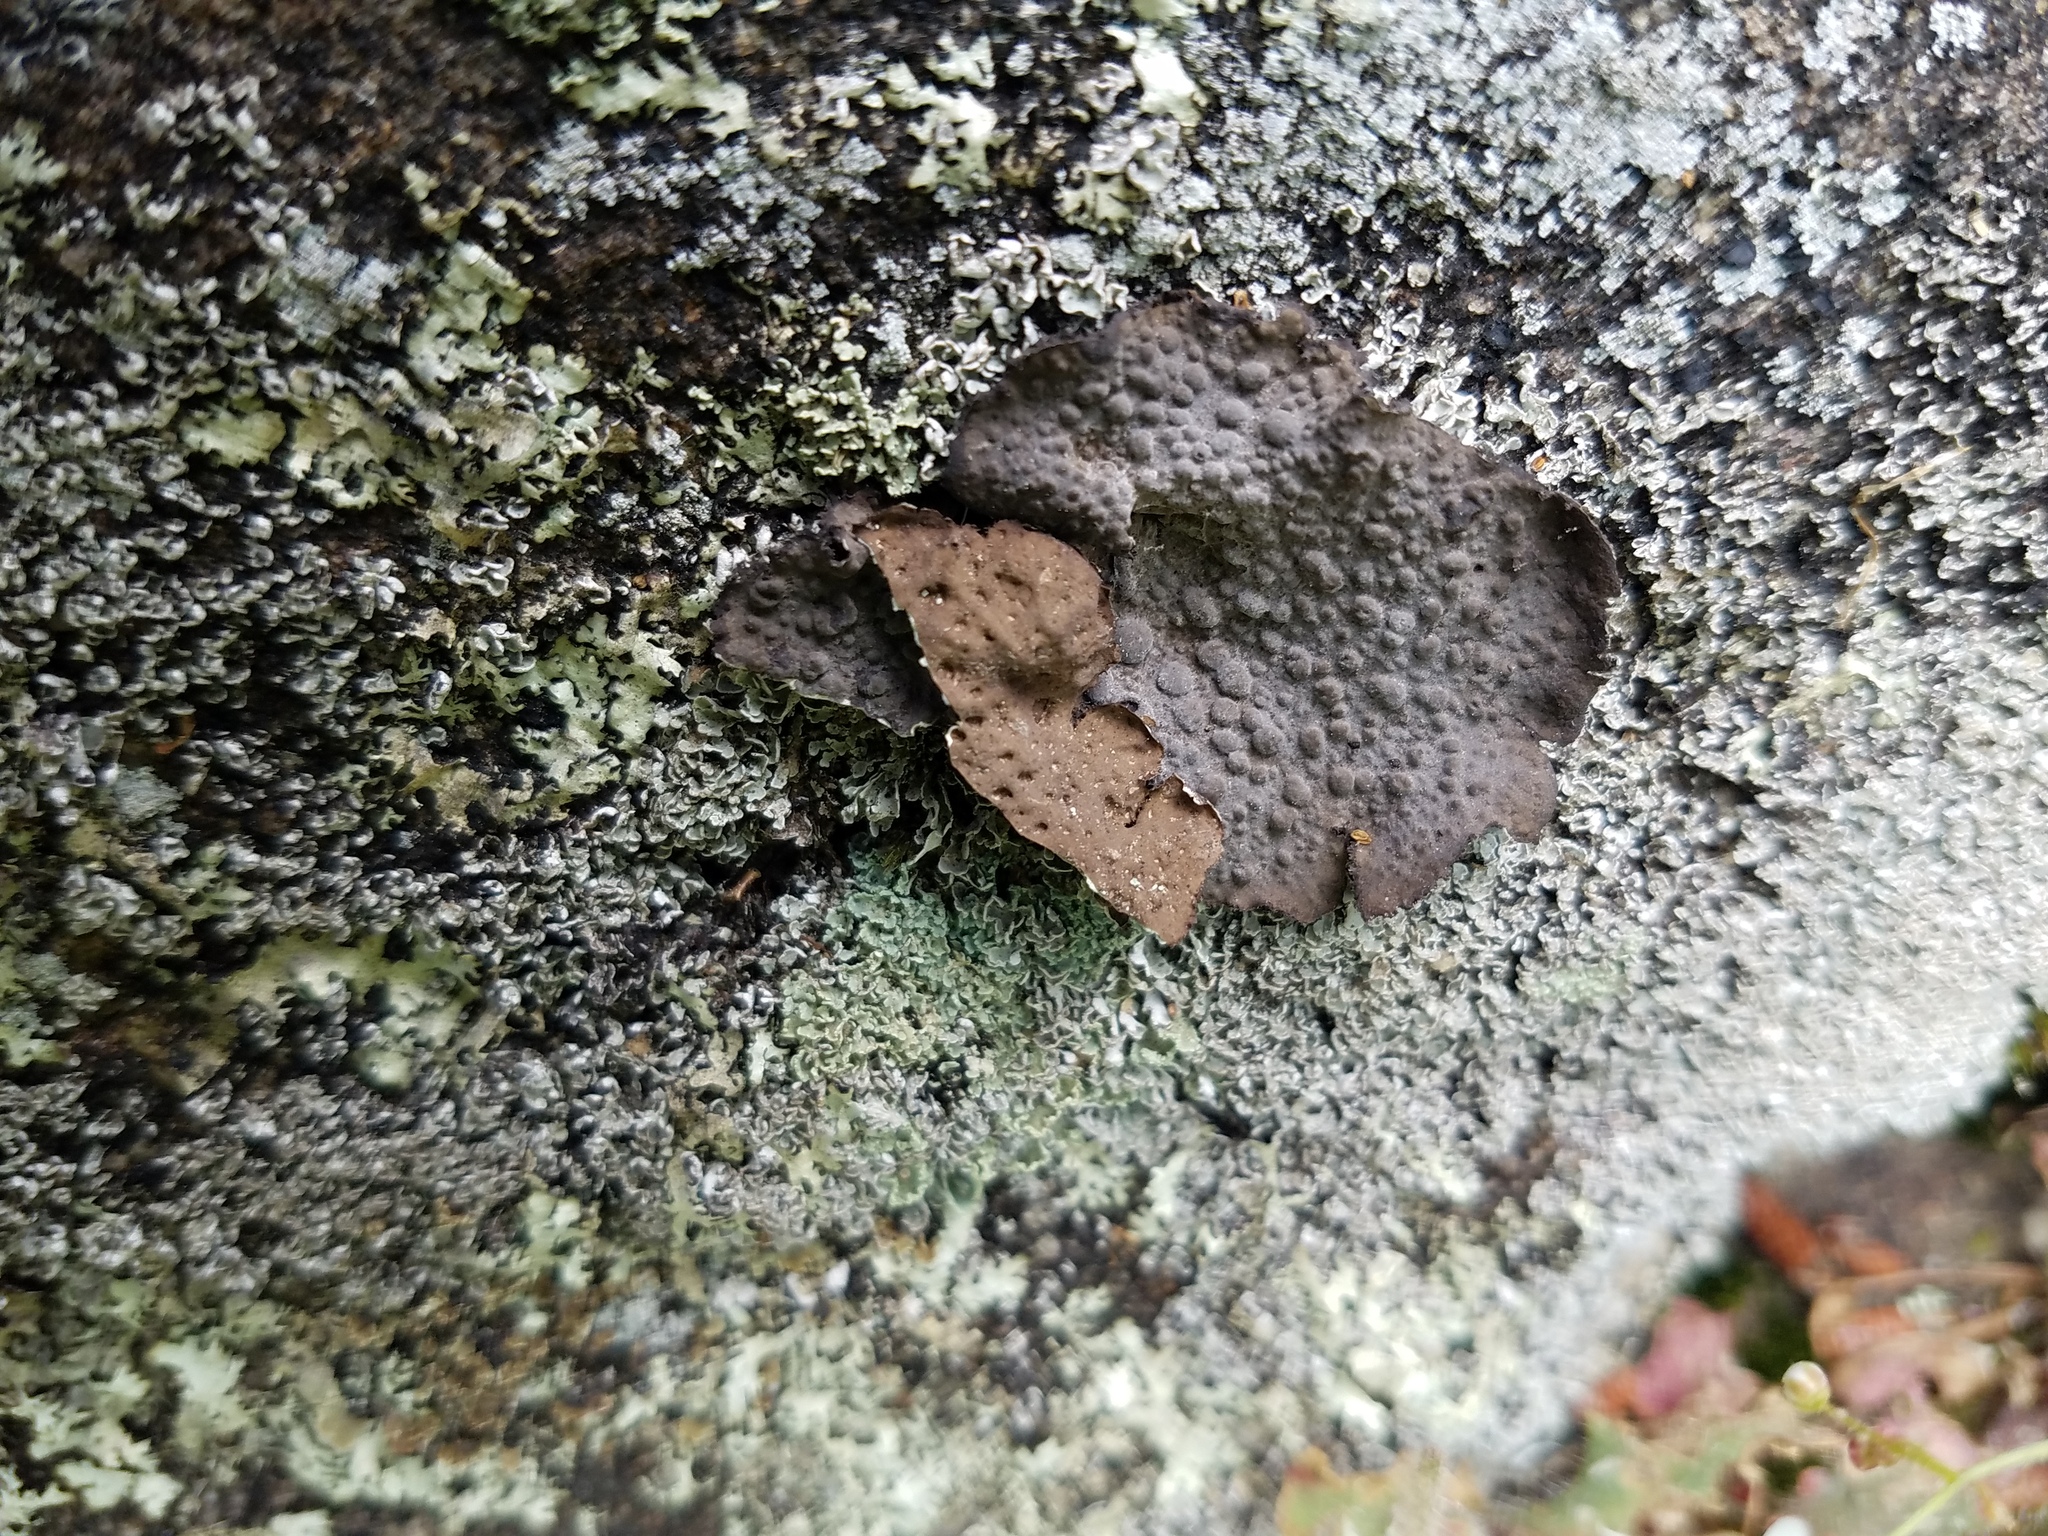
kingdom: Fungi
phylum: Ascomycota
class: Lecanoromycetes
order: Umbilicariales
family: Umbilicariaceae
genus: Lasallia
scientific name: Lasallia papulosa
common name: Common toadskin lichen
